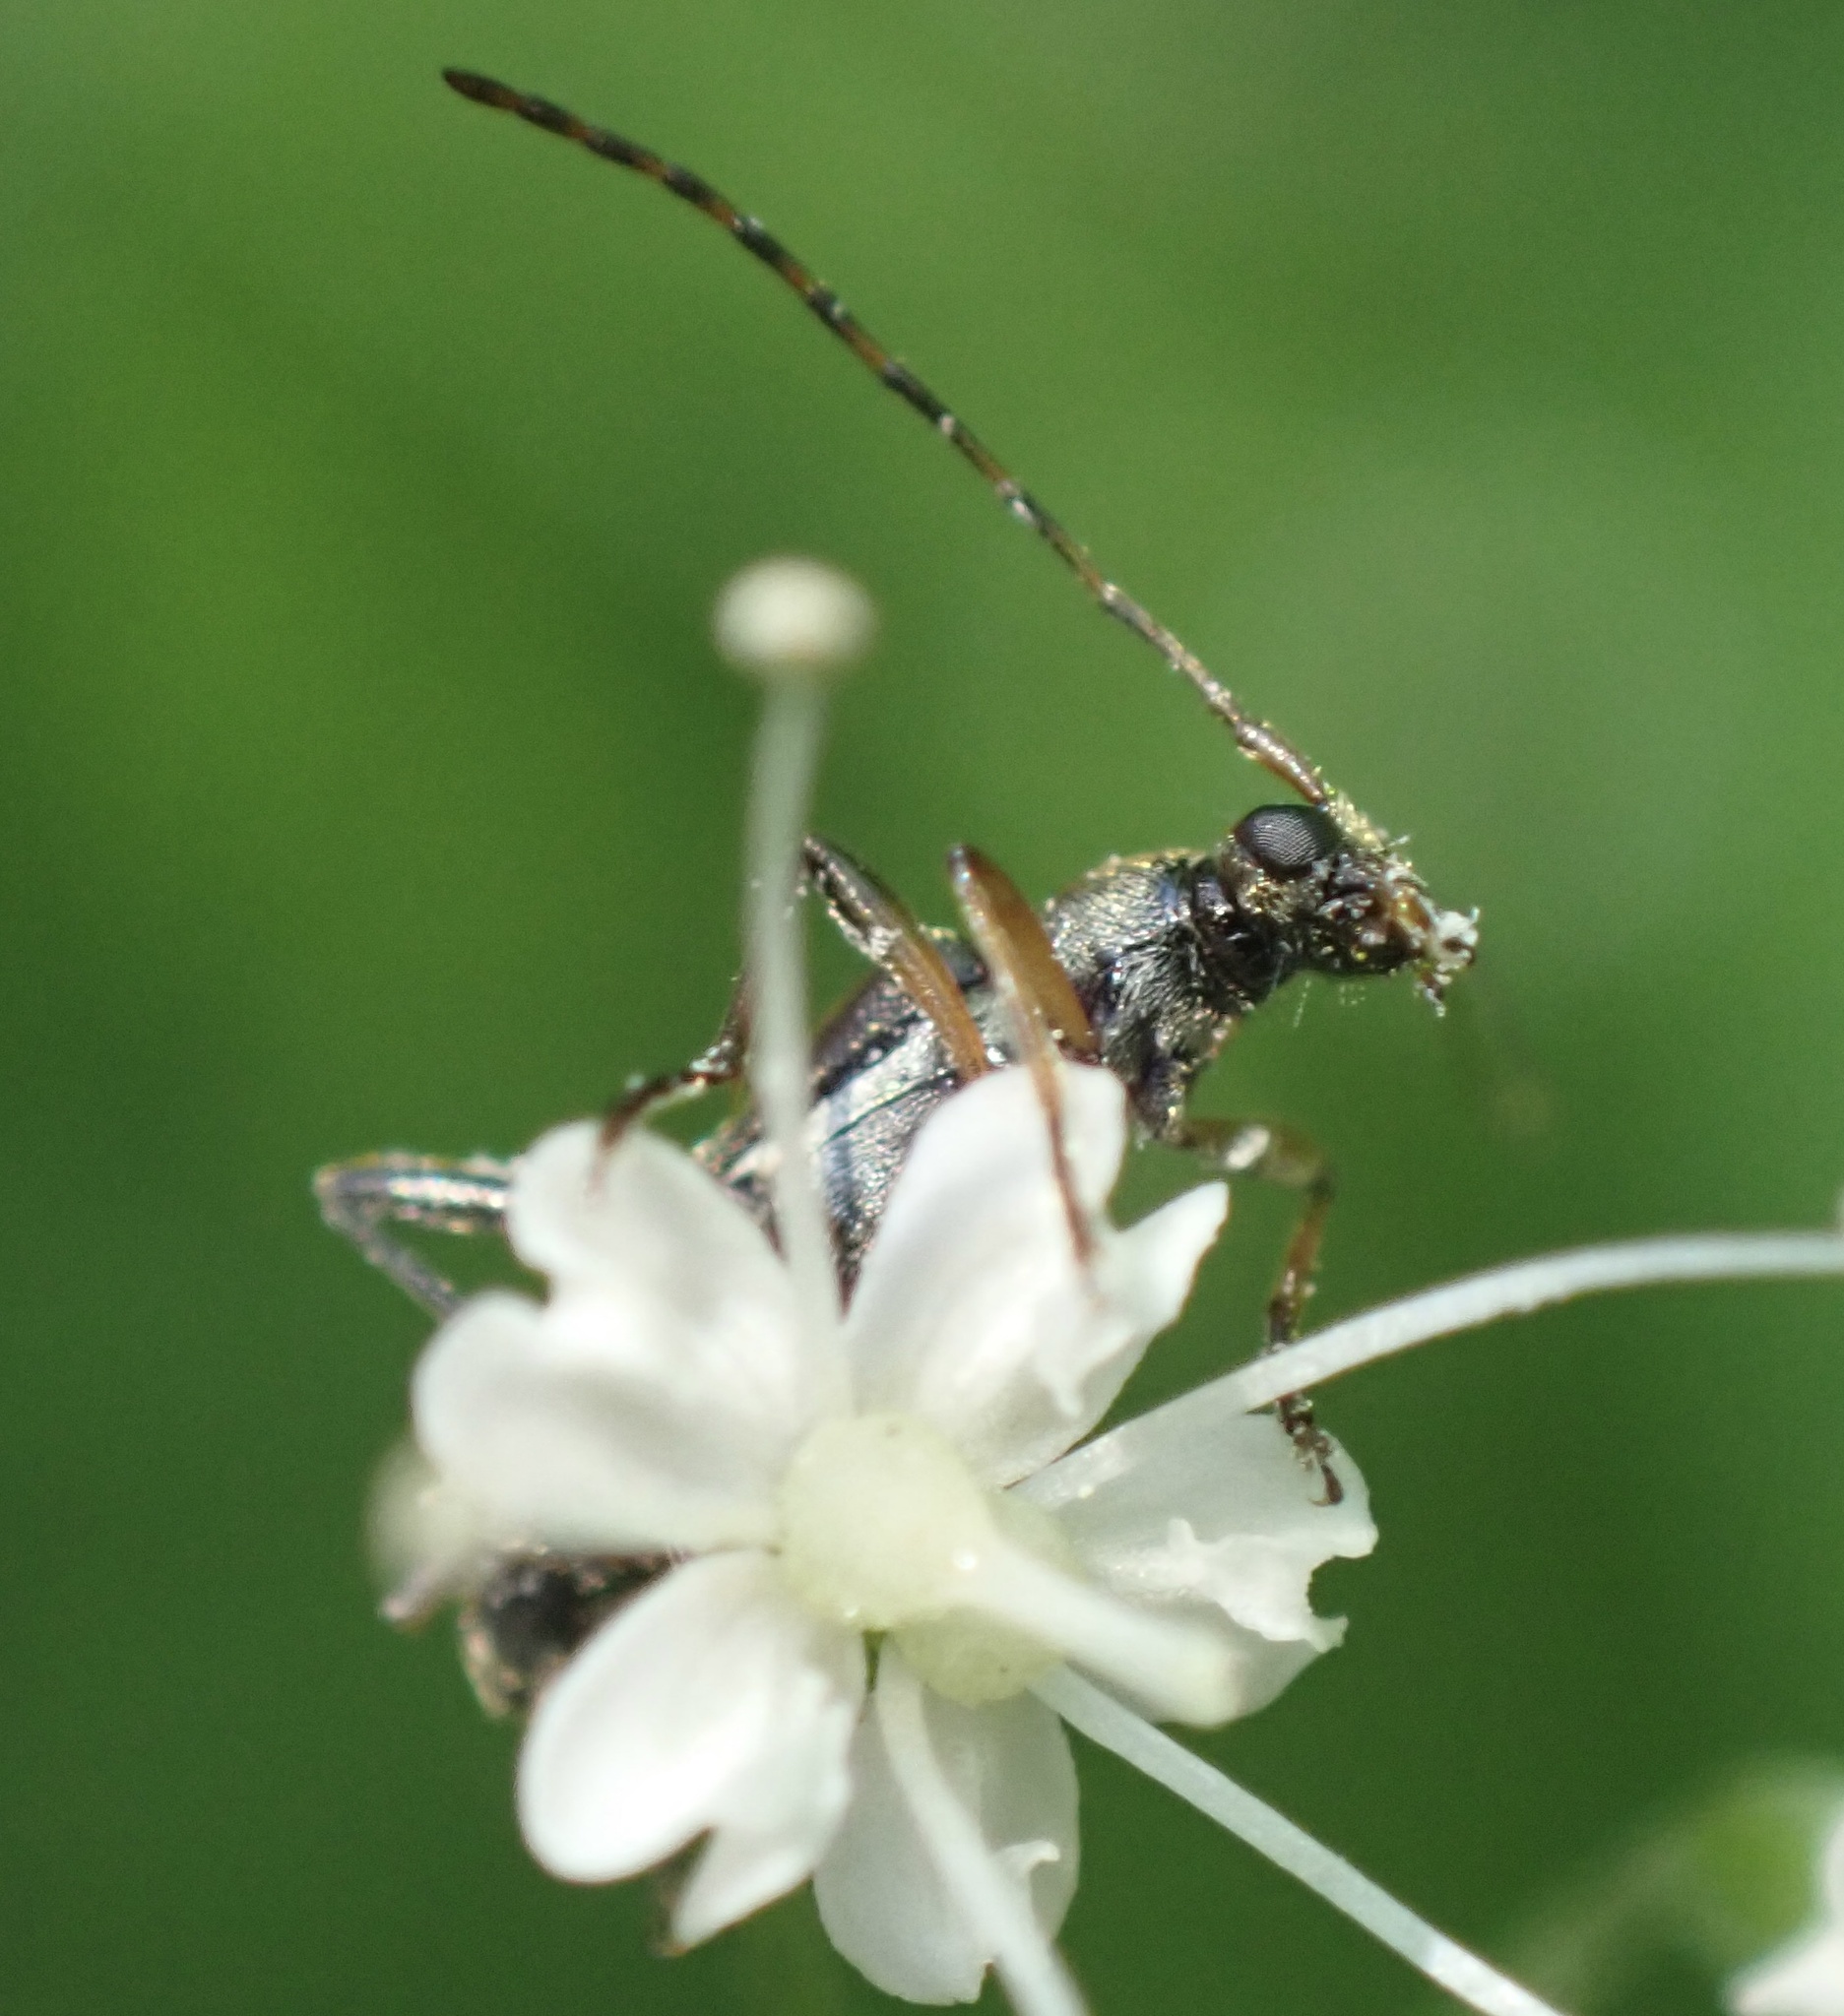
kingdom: Animalia
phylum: Arthropoda
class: Insecta
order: Coleoptera
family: Cerambycidae
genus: Grammoptera
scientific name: Grammoptera ruficornis
